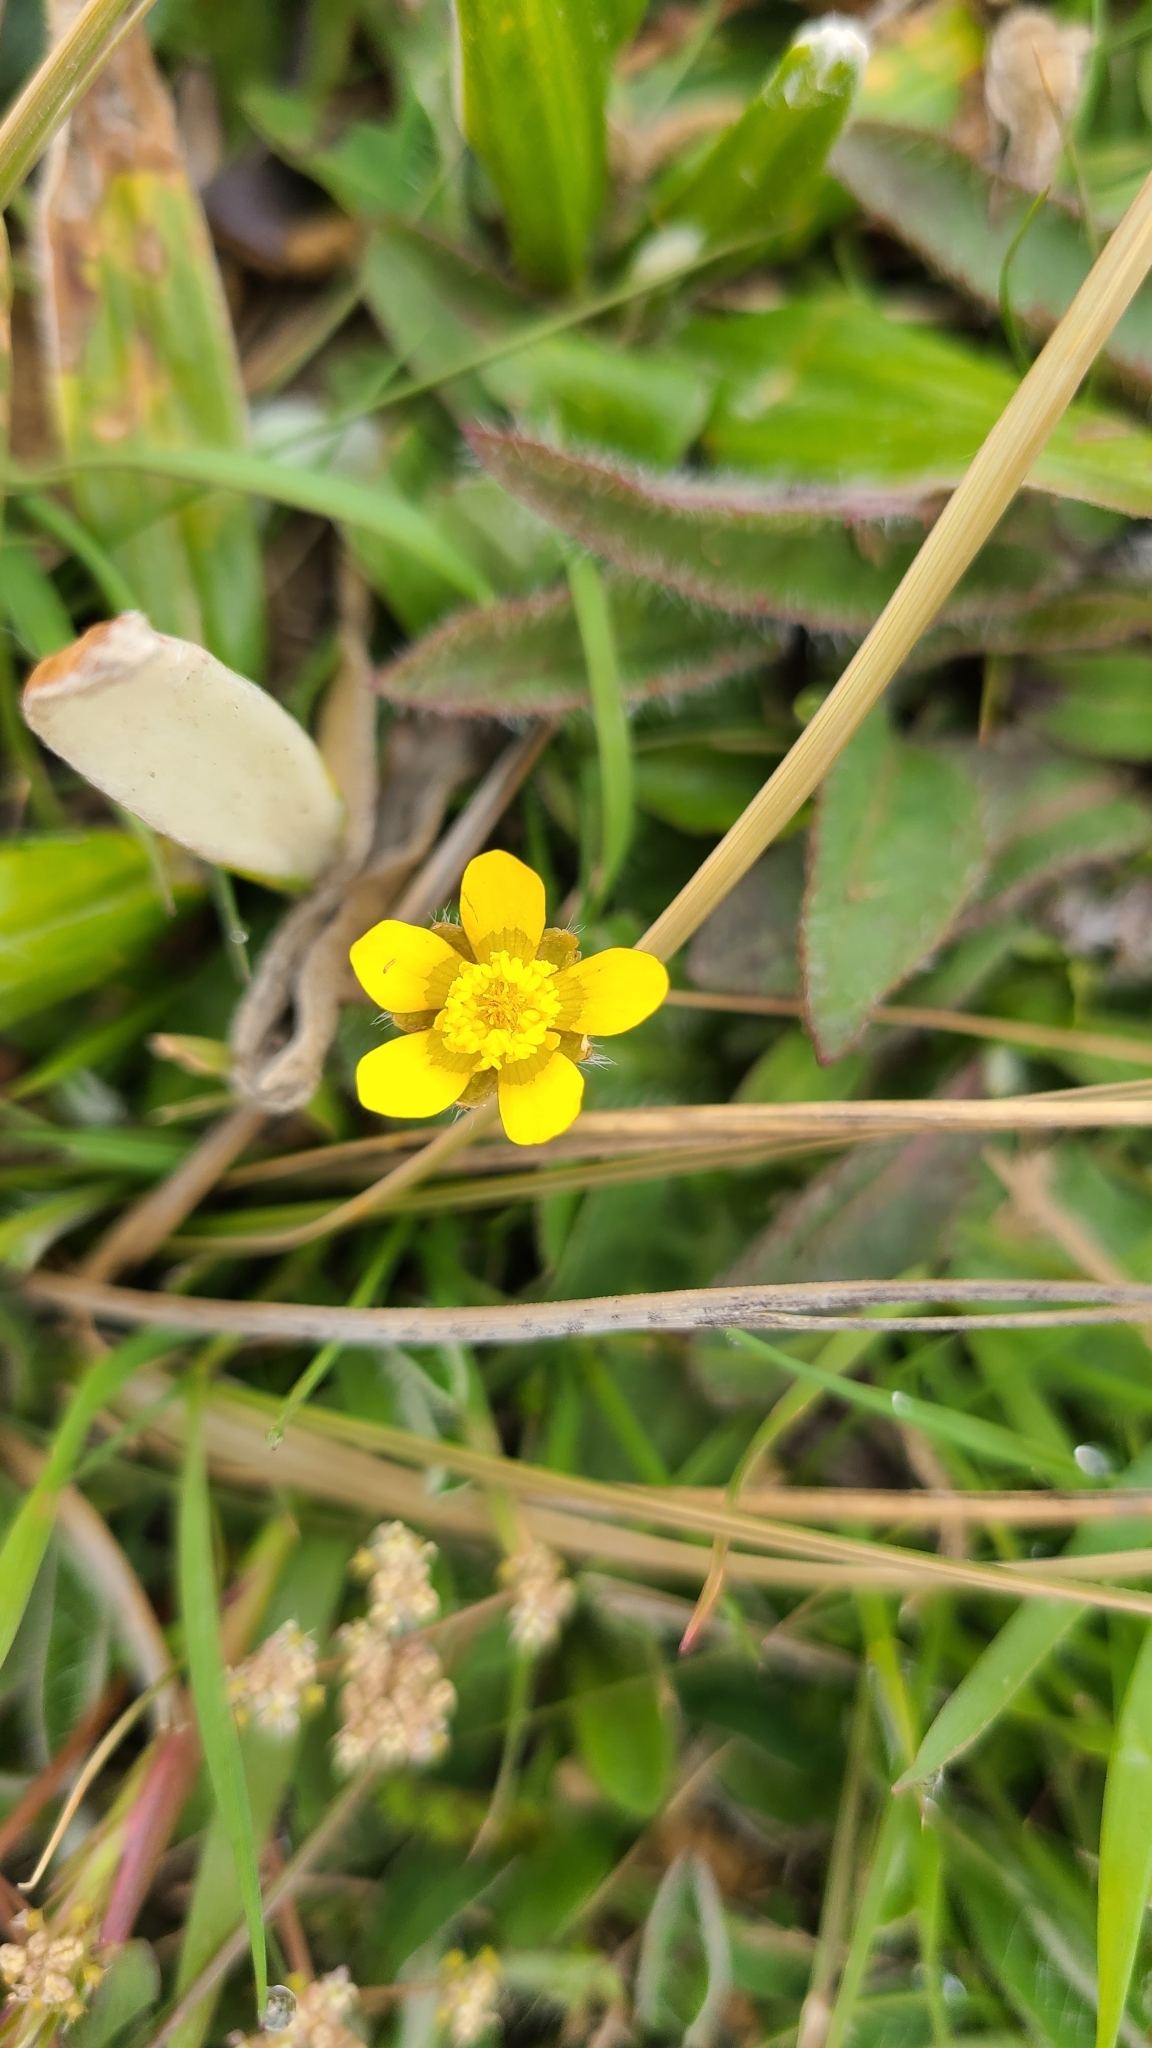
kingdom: Plantae
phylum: Tracheophyta
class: Magnoliopsida
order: Ranunculales
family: Ranunculaceae
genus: Ranunculus
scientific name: Ranunculus multiscapus
